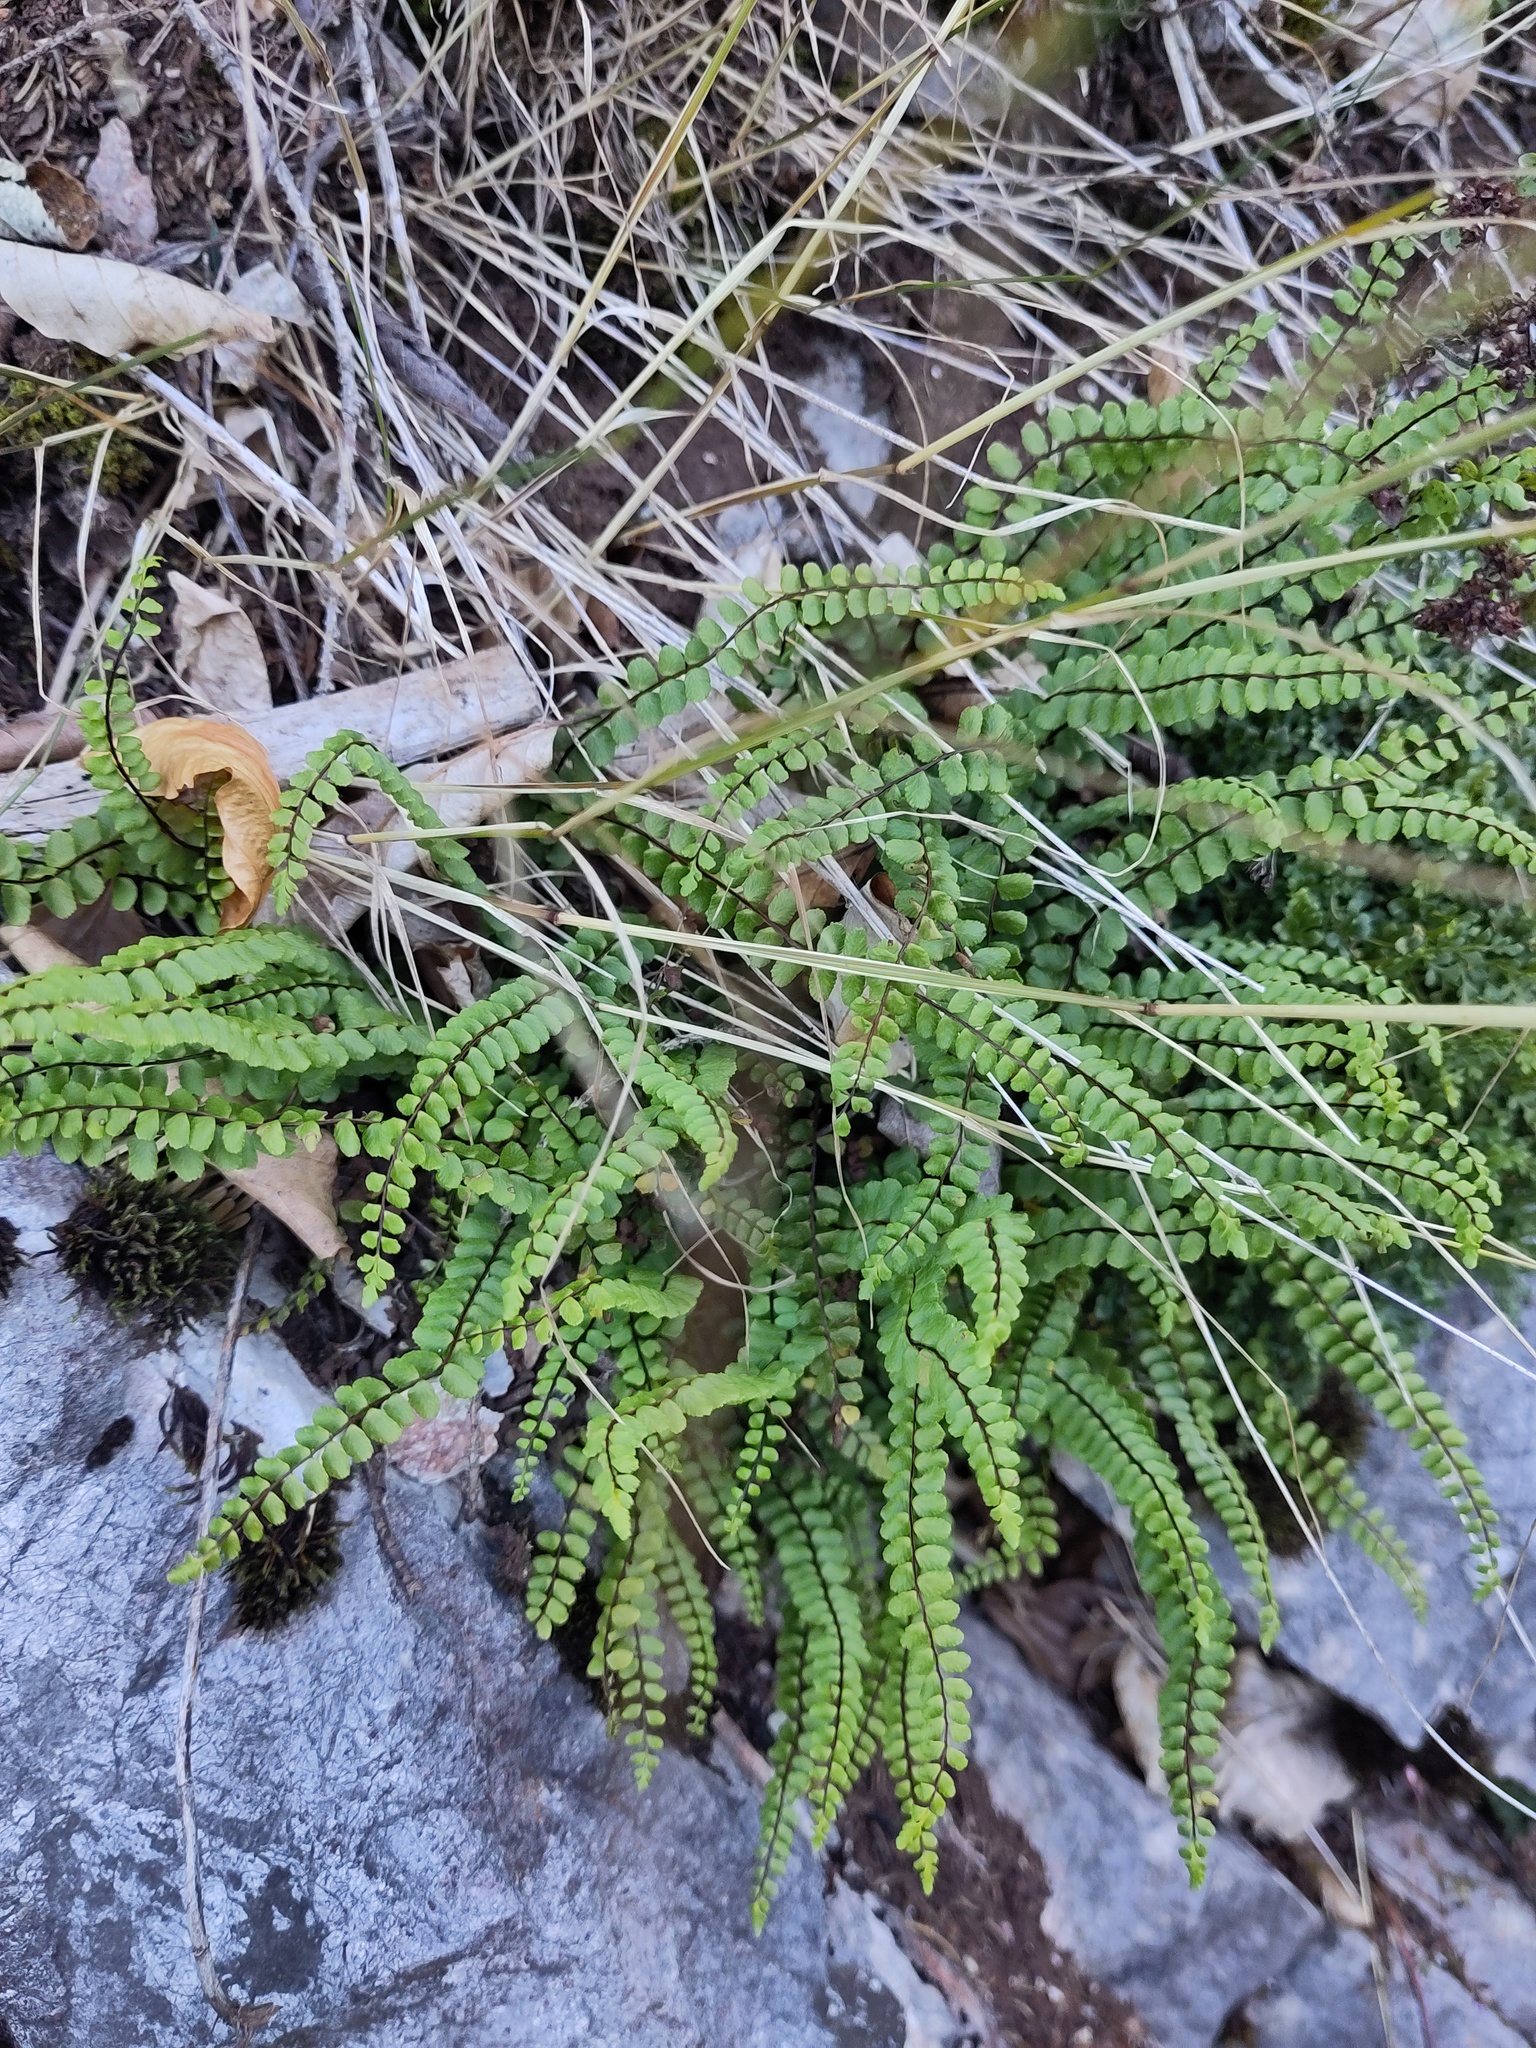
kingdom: Plantae
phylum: Tracheophyta
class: Polypodiopsida
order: Polypodiales
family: Aspleniaceae
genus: Asplenium
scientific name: Asplenium trichomanes
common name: Maidenhair spleenwort
